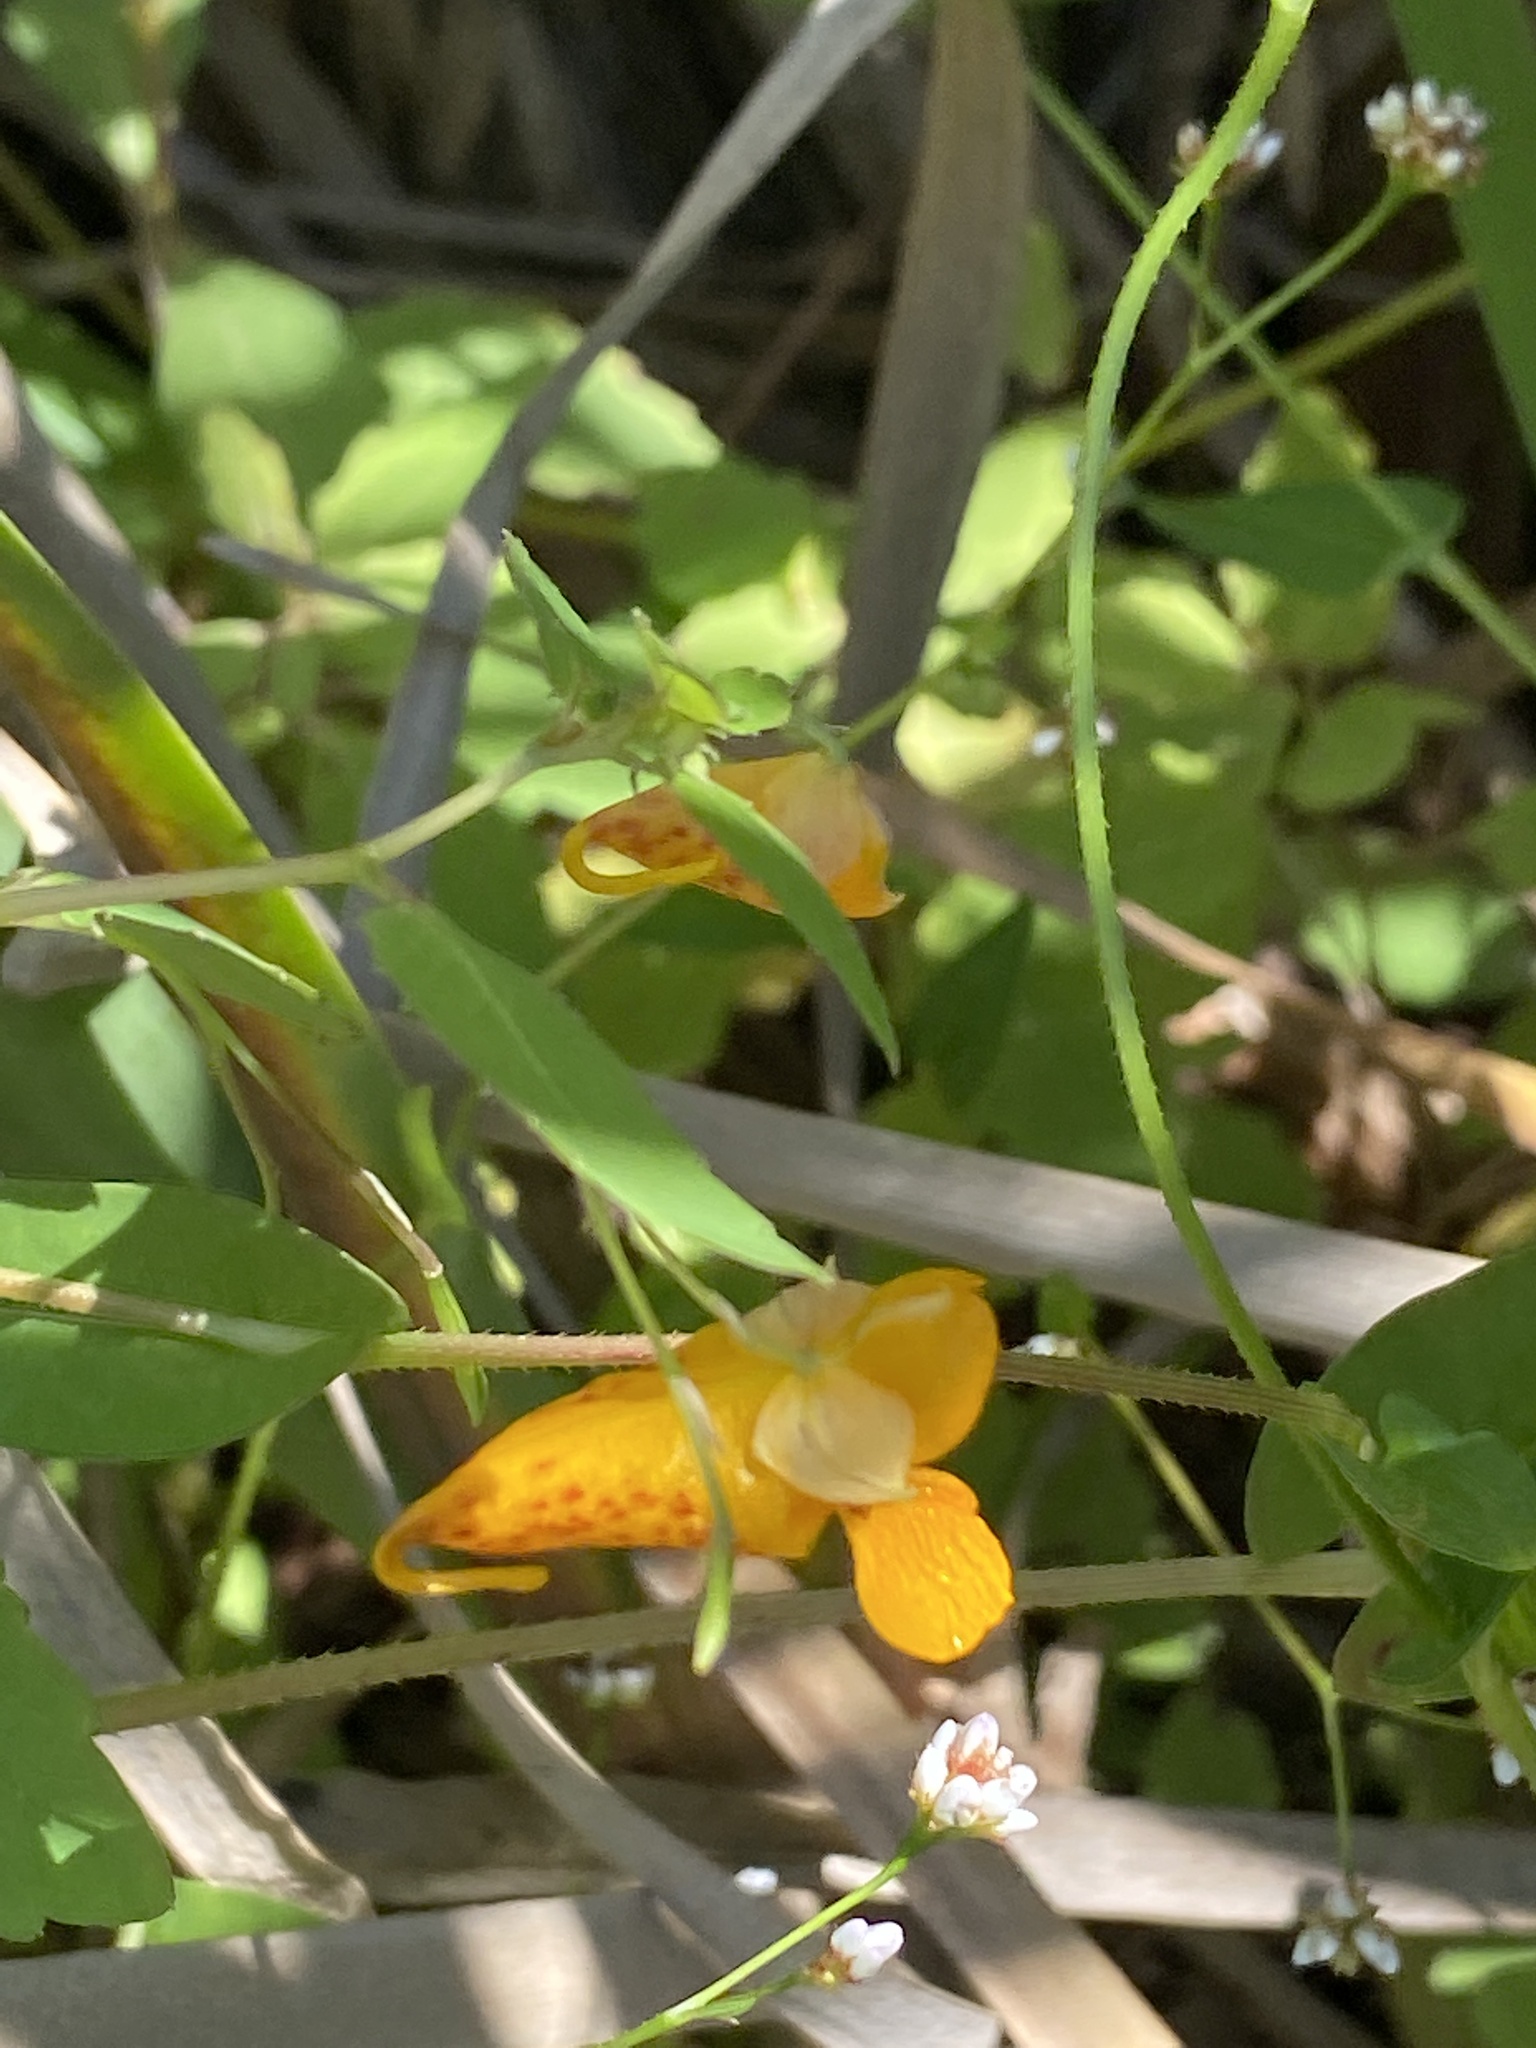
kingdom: Plantae
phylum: Tracheophyta
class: Magnoliopsida
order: Ericales
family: Balsaminaceae
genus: Impatiens
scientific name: Impatiens capensis
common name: Orange balsam
